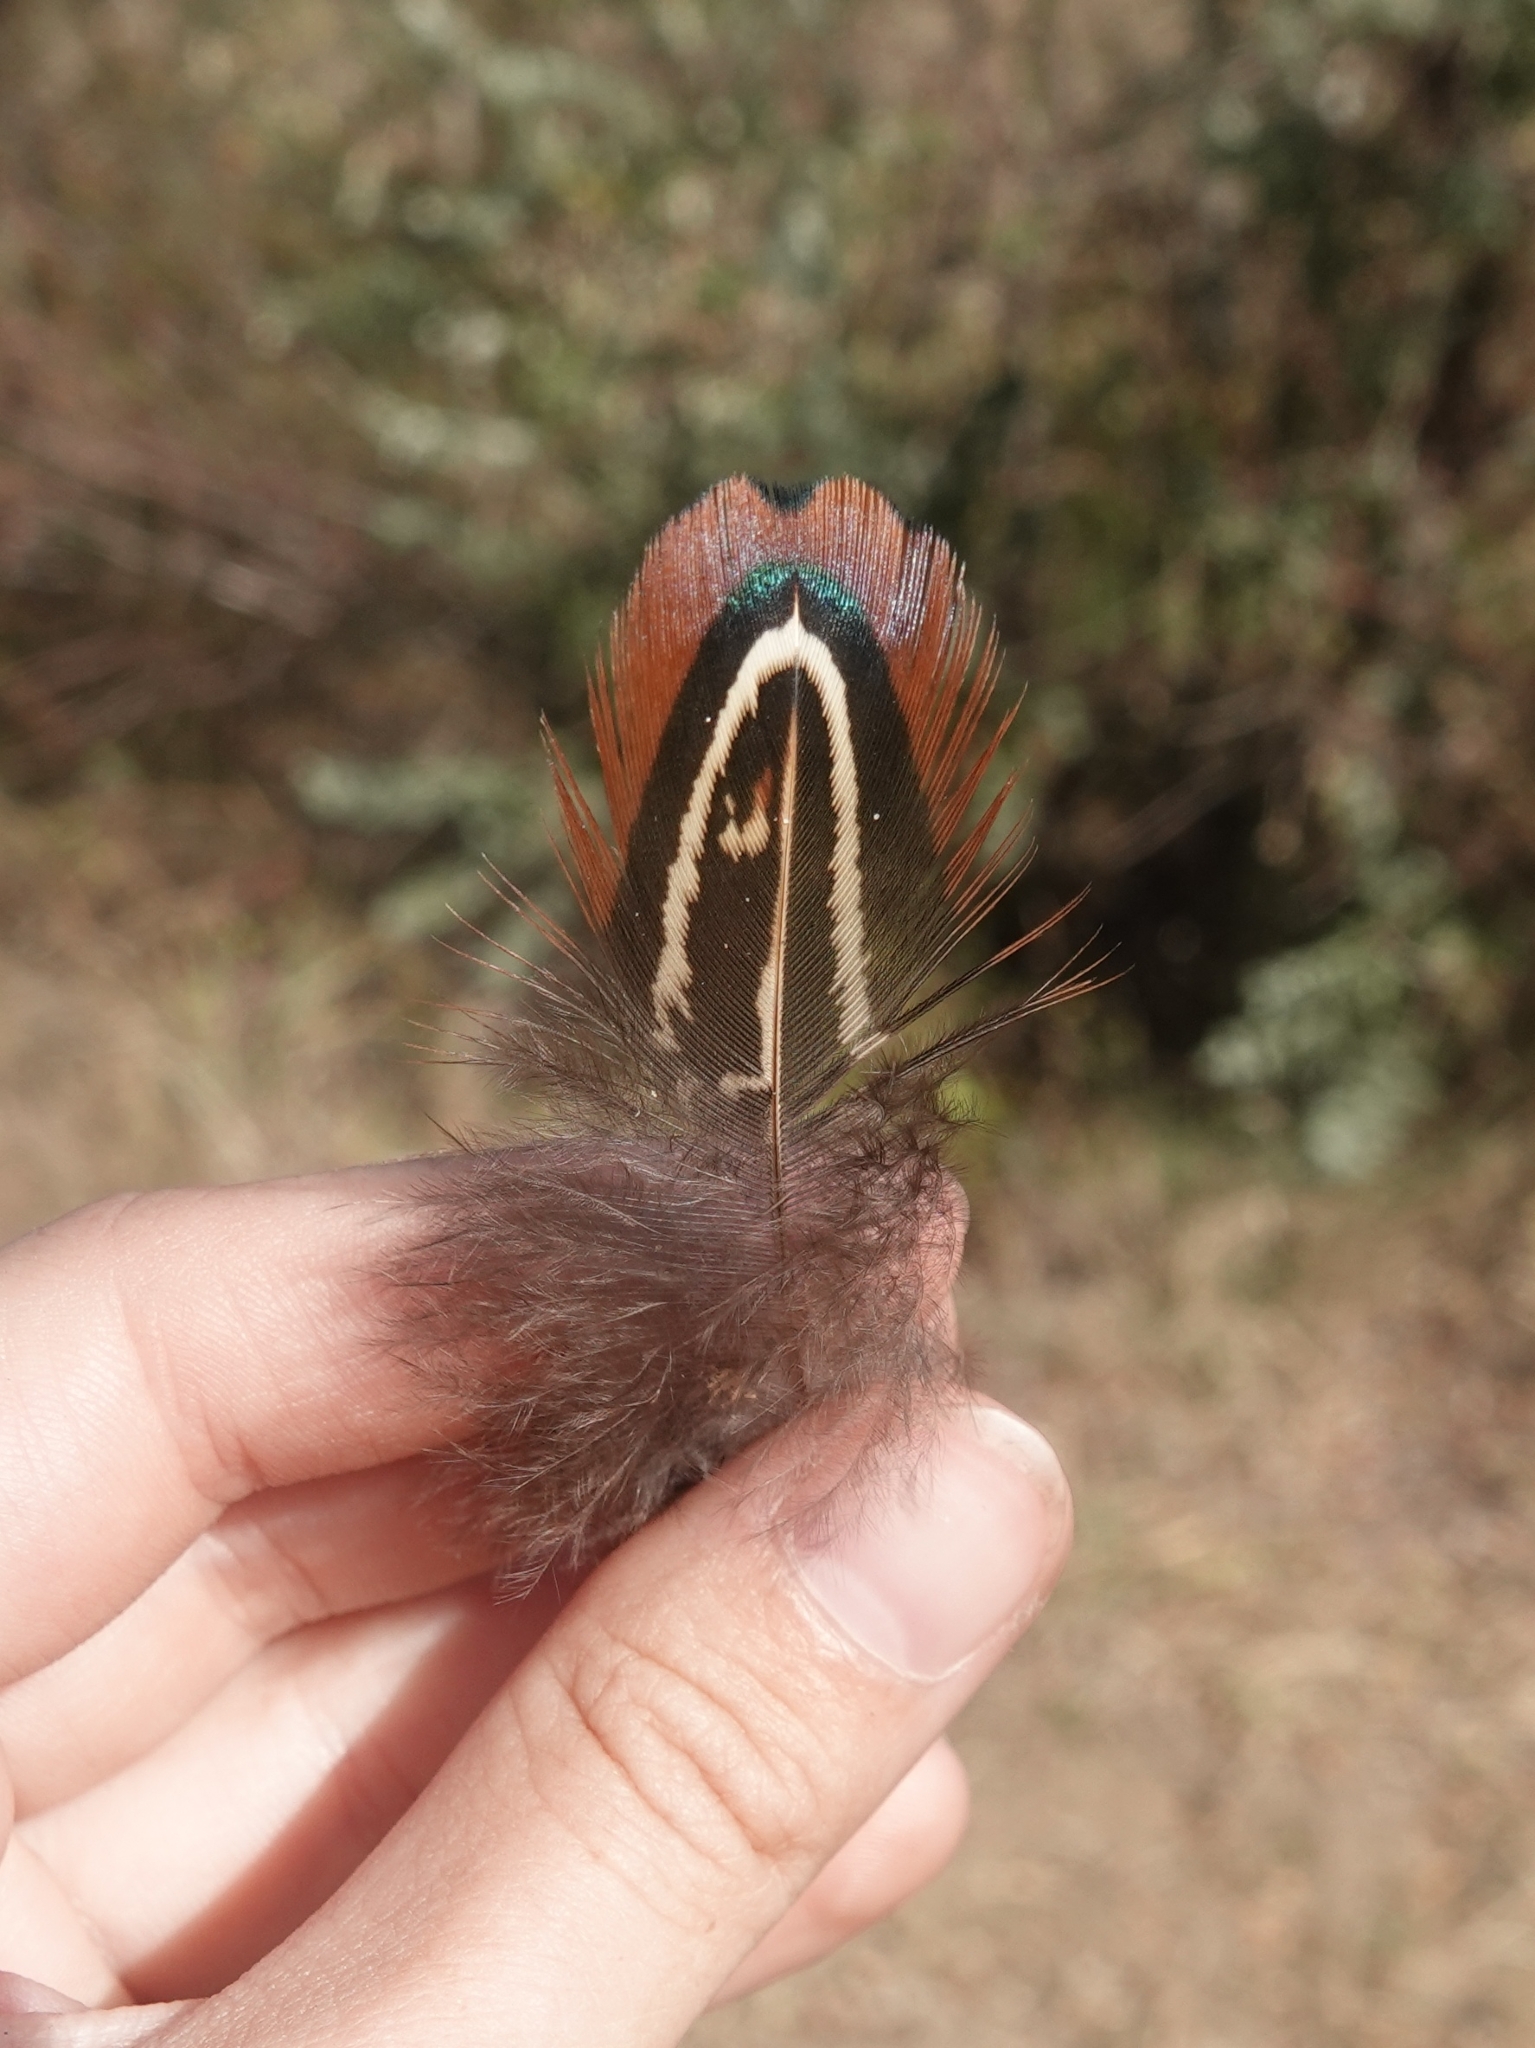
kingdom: Animalia
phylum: Chordata
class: Aves
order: Galliformes
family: Phasianidae
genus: Phasianus
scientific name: Phasianus colchicus
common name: Common pheasant
